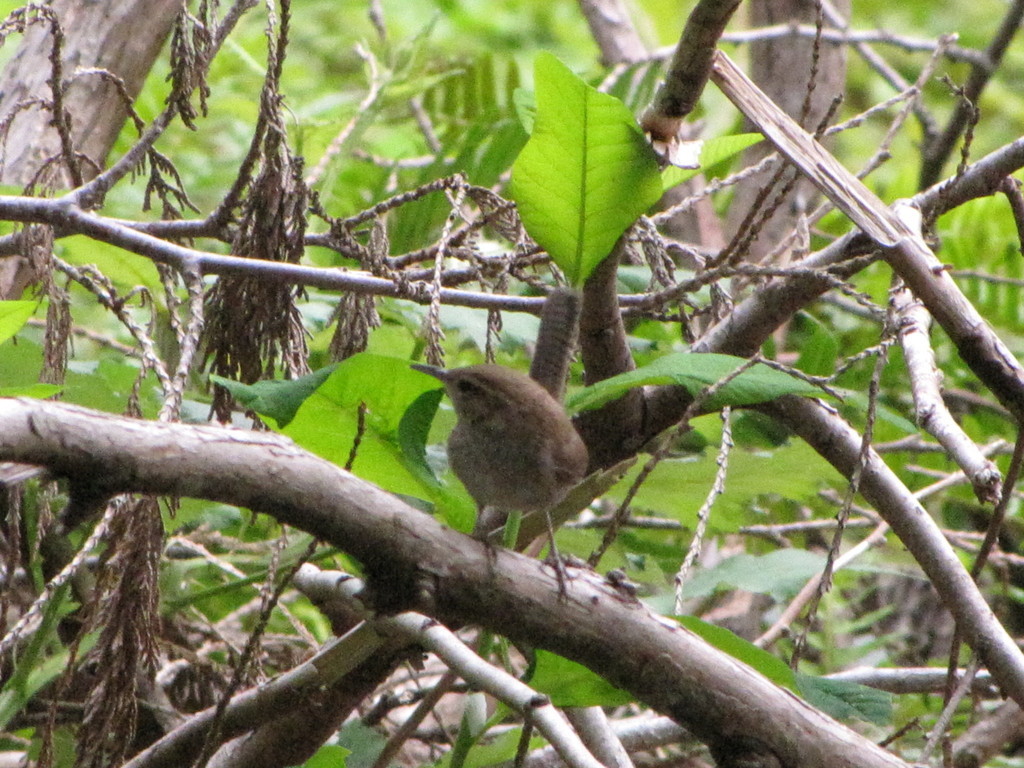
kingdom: Animalia
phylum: Chordata
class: Aves
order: Passeriformes
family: Troglodytidae
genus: Thryomanes
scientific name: Thryomanes bewickii
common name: Bewick's wren
